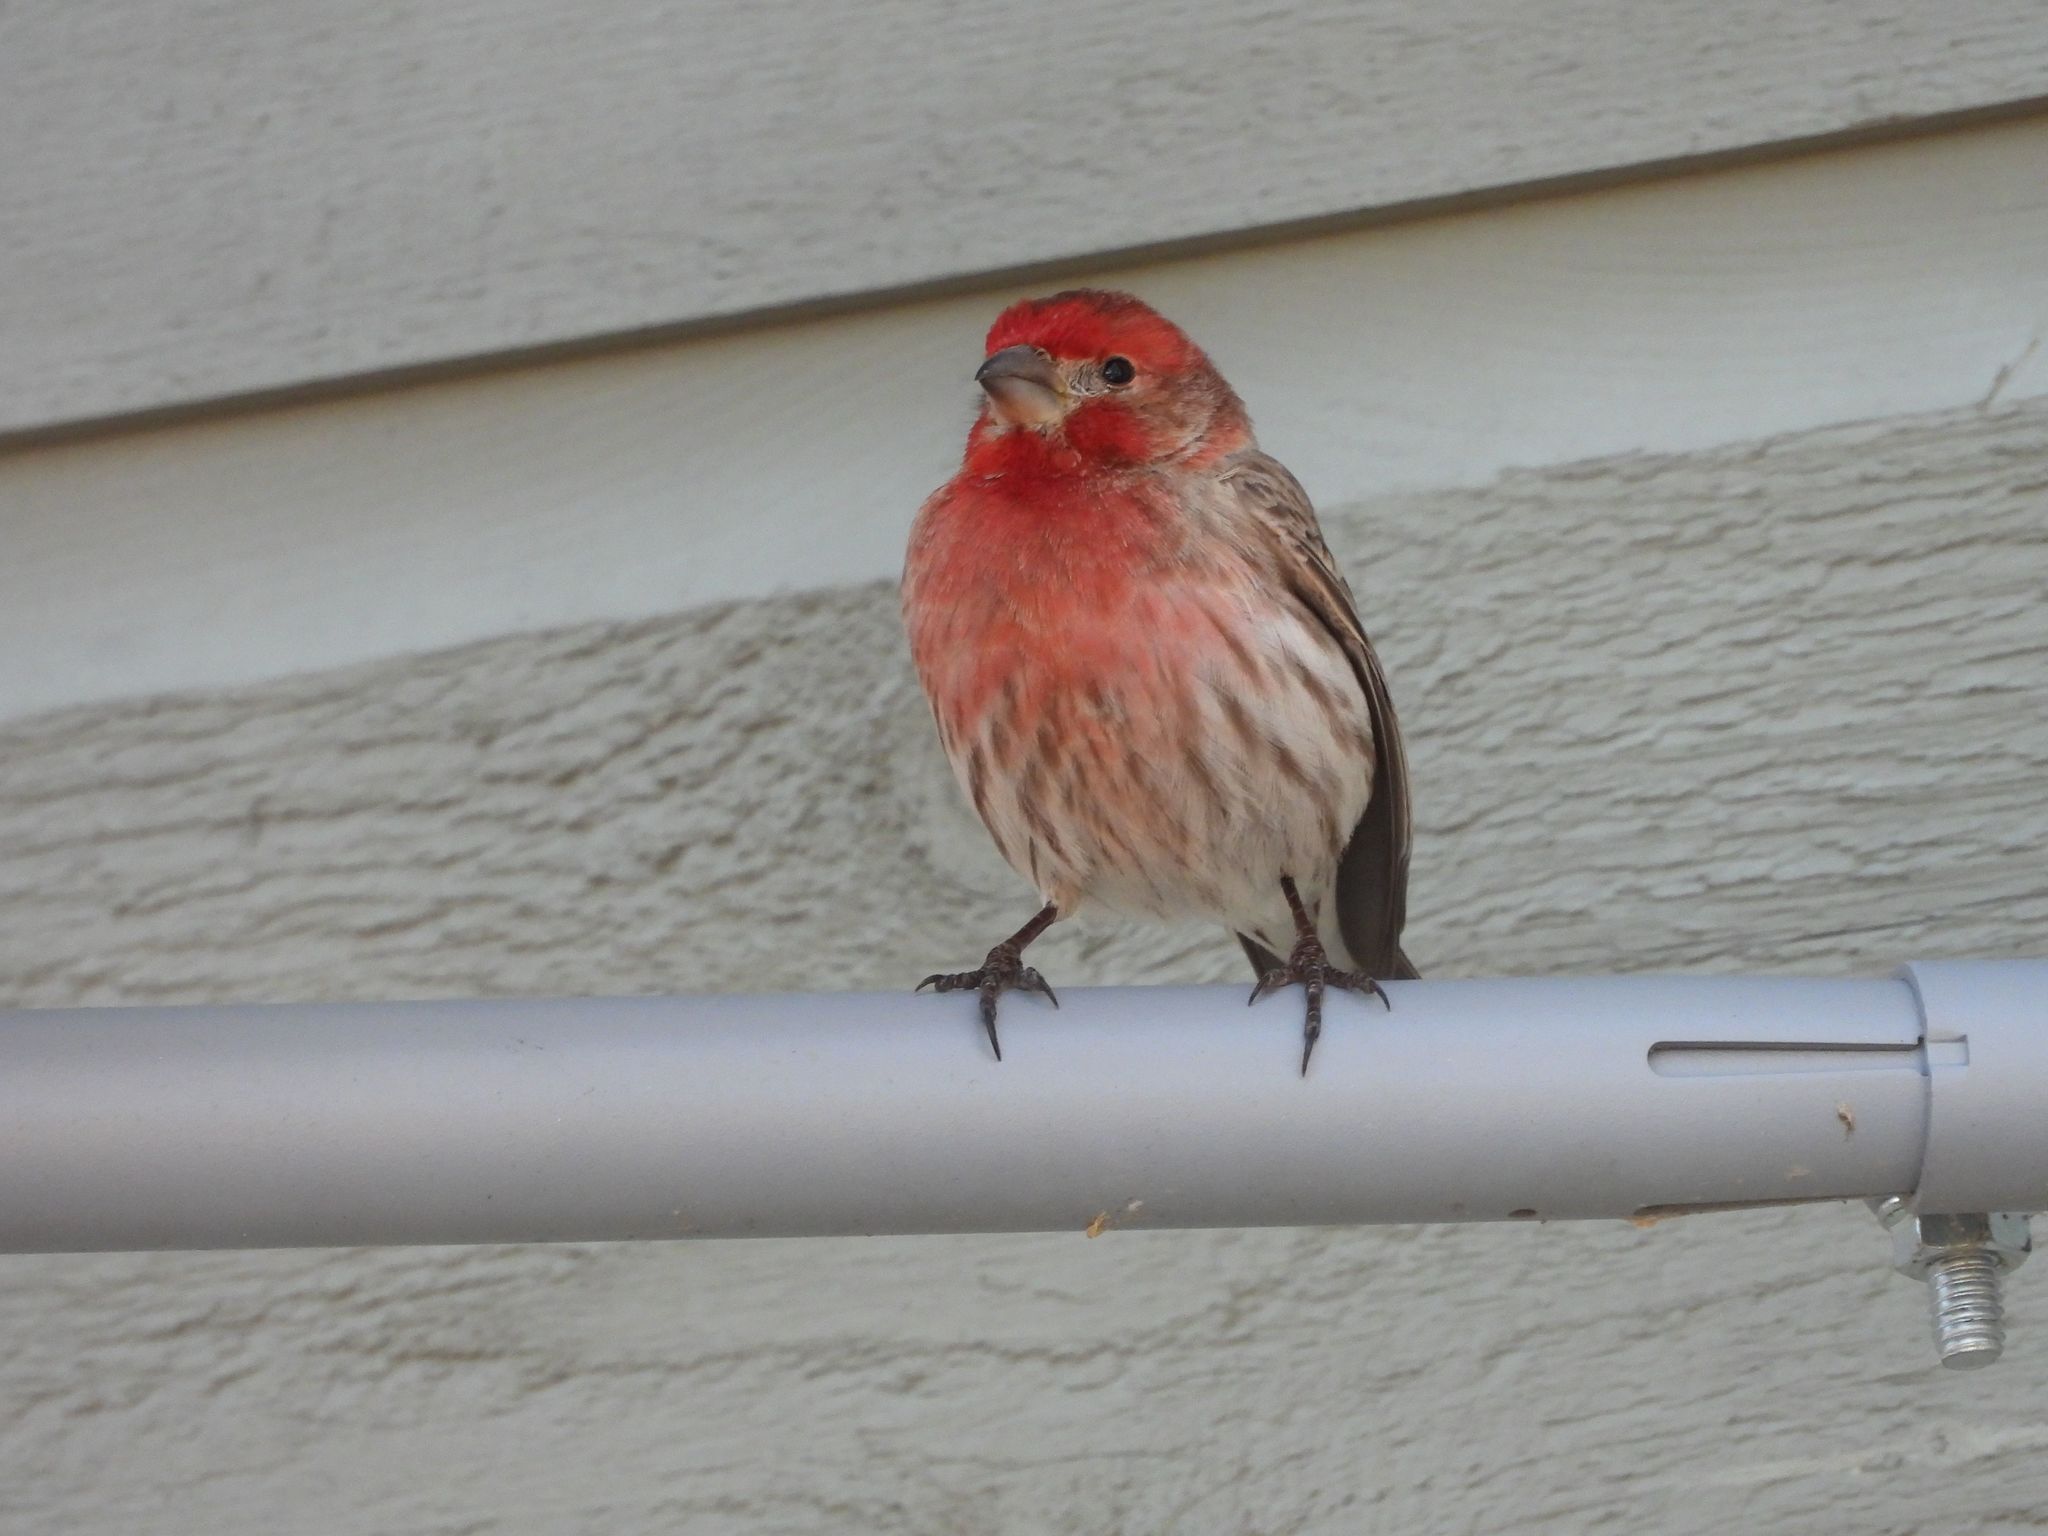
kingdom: Animalia
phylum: Chordata
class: Aves
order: Passeriformes
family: Fringillidae
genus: Haemorhous
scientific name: Haemorhous mexicanus
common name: House finch
